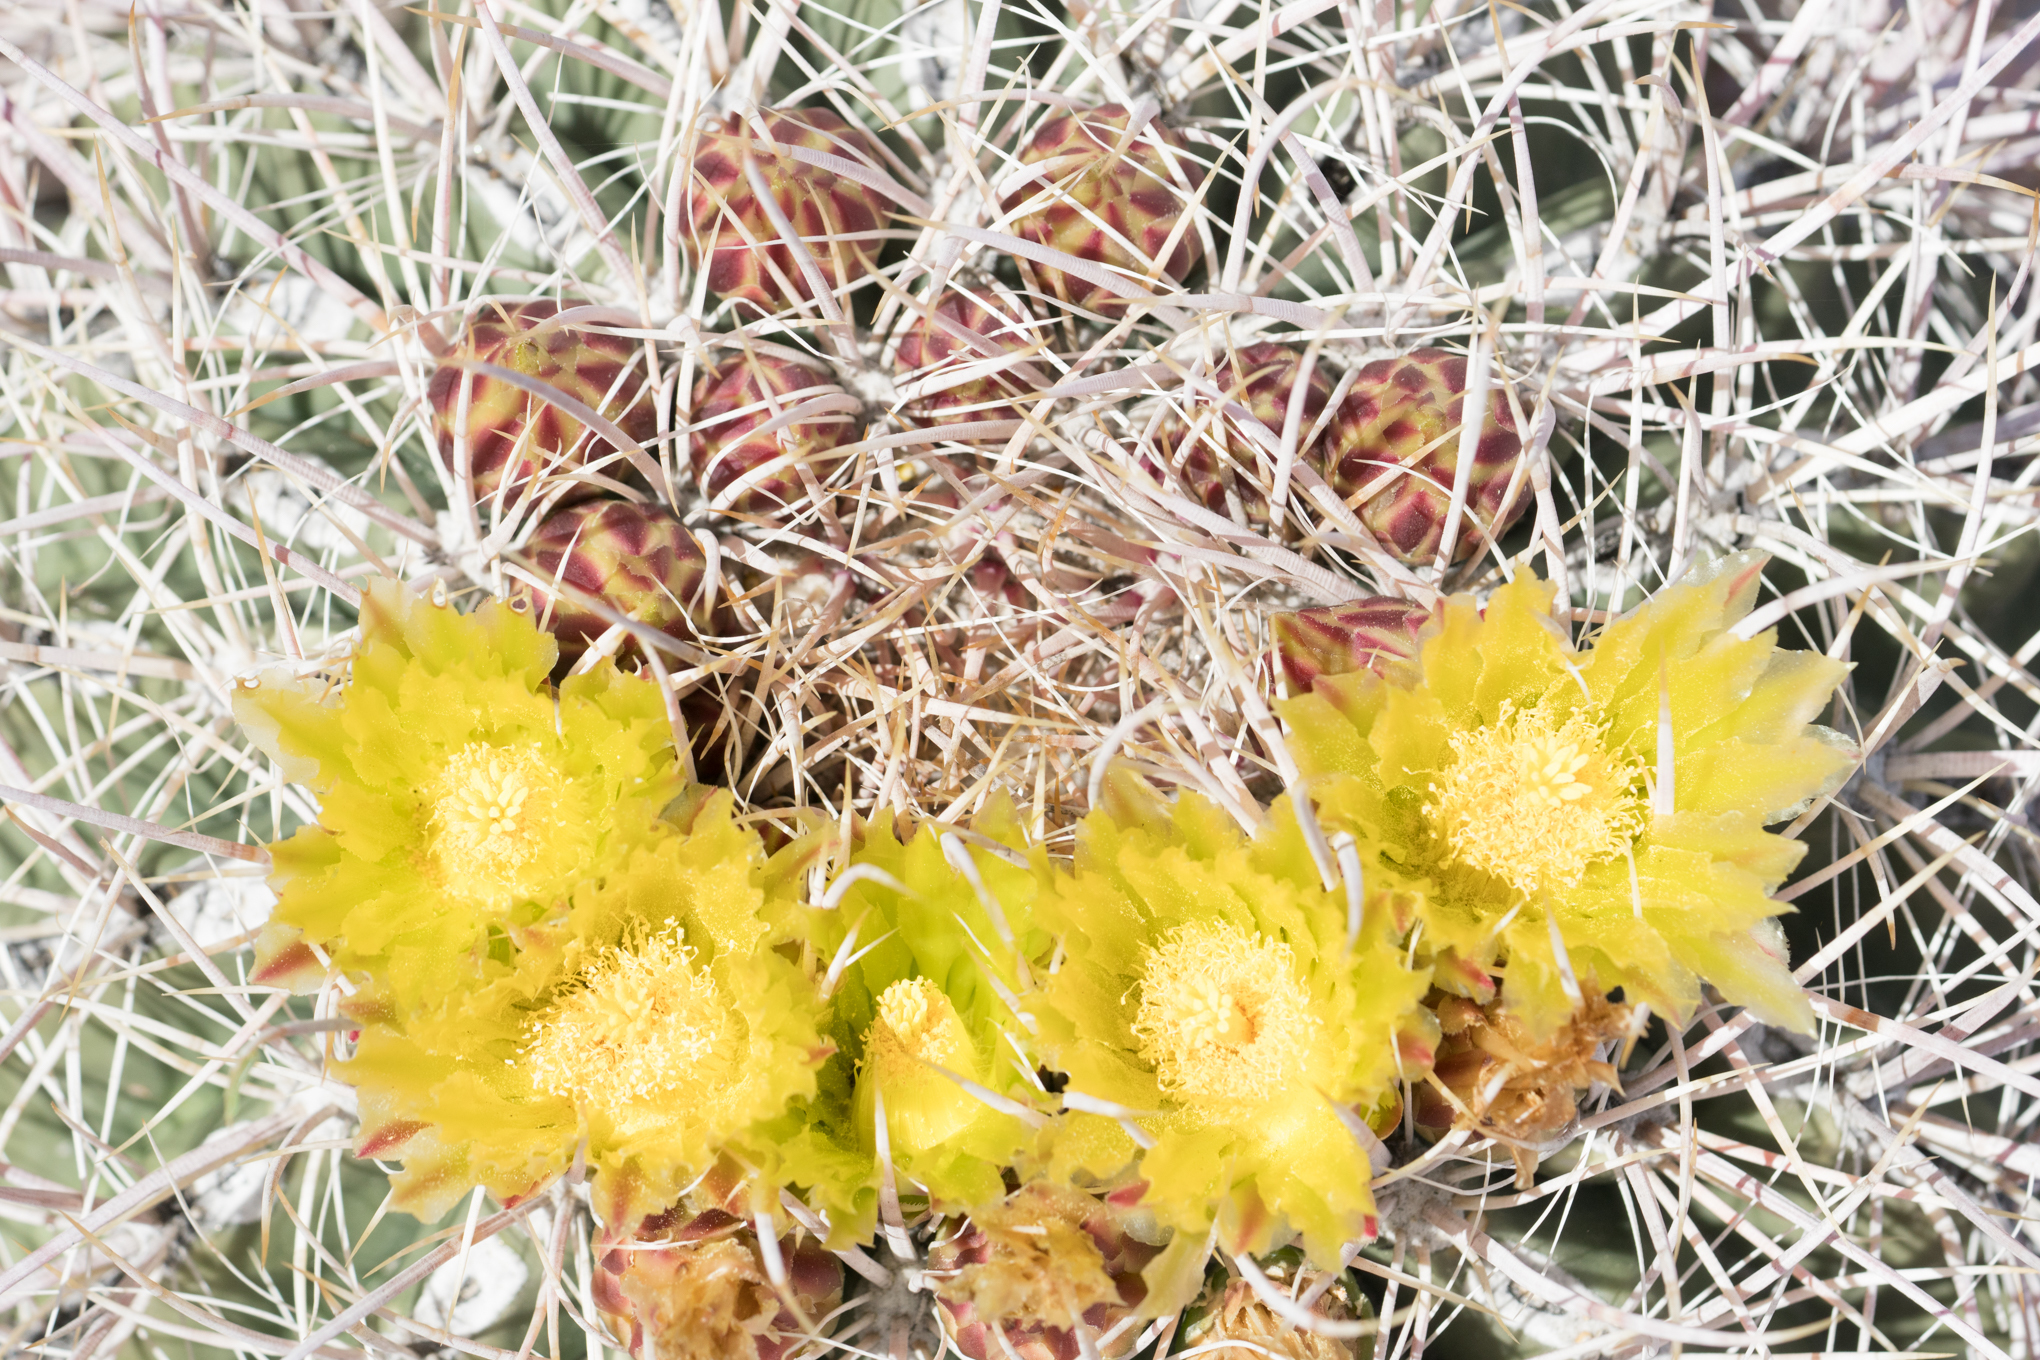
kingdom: Plantae
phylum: Tracheophyta
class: Magnoliopsida
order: Caryophyllales
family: Cactaceae
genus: Ferocactus
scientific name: Ferocactus cylindraceus
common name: California barrel cactus
